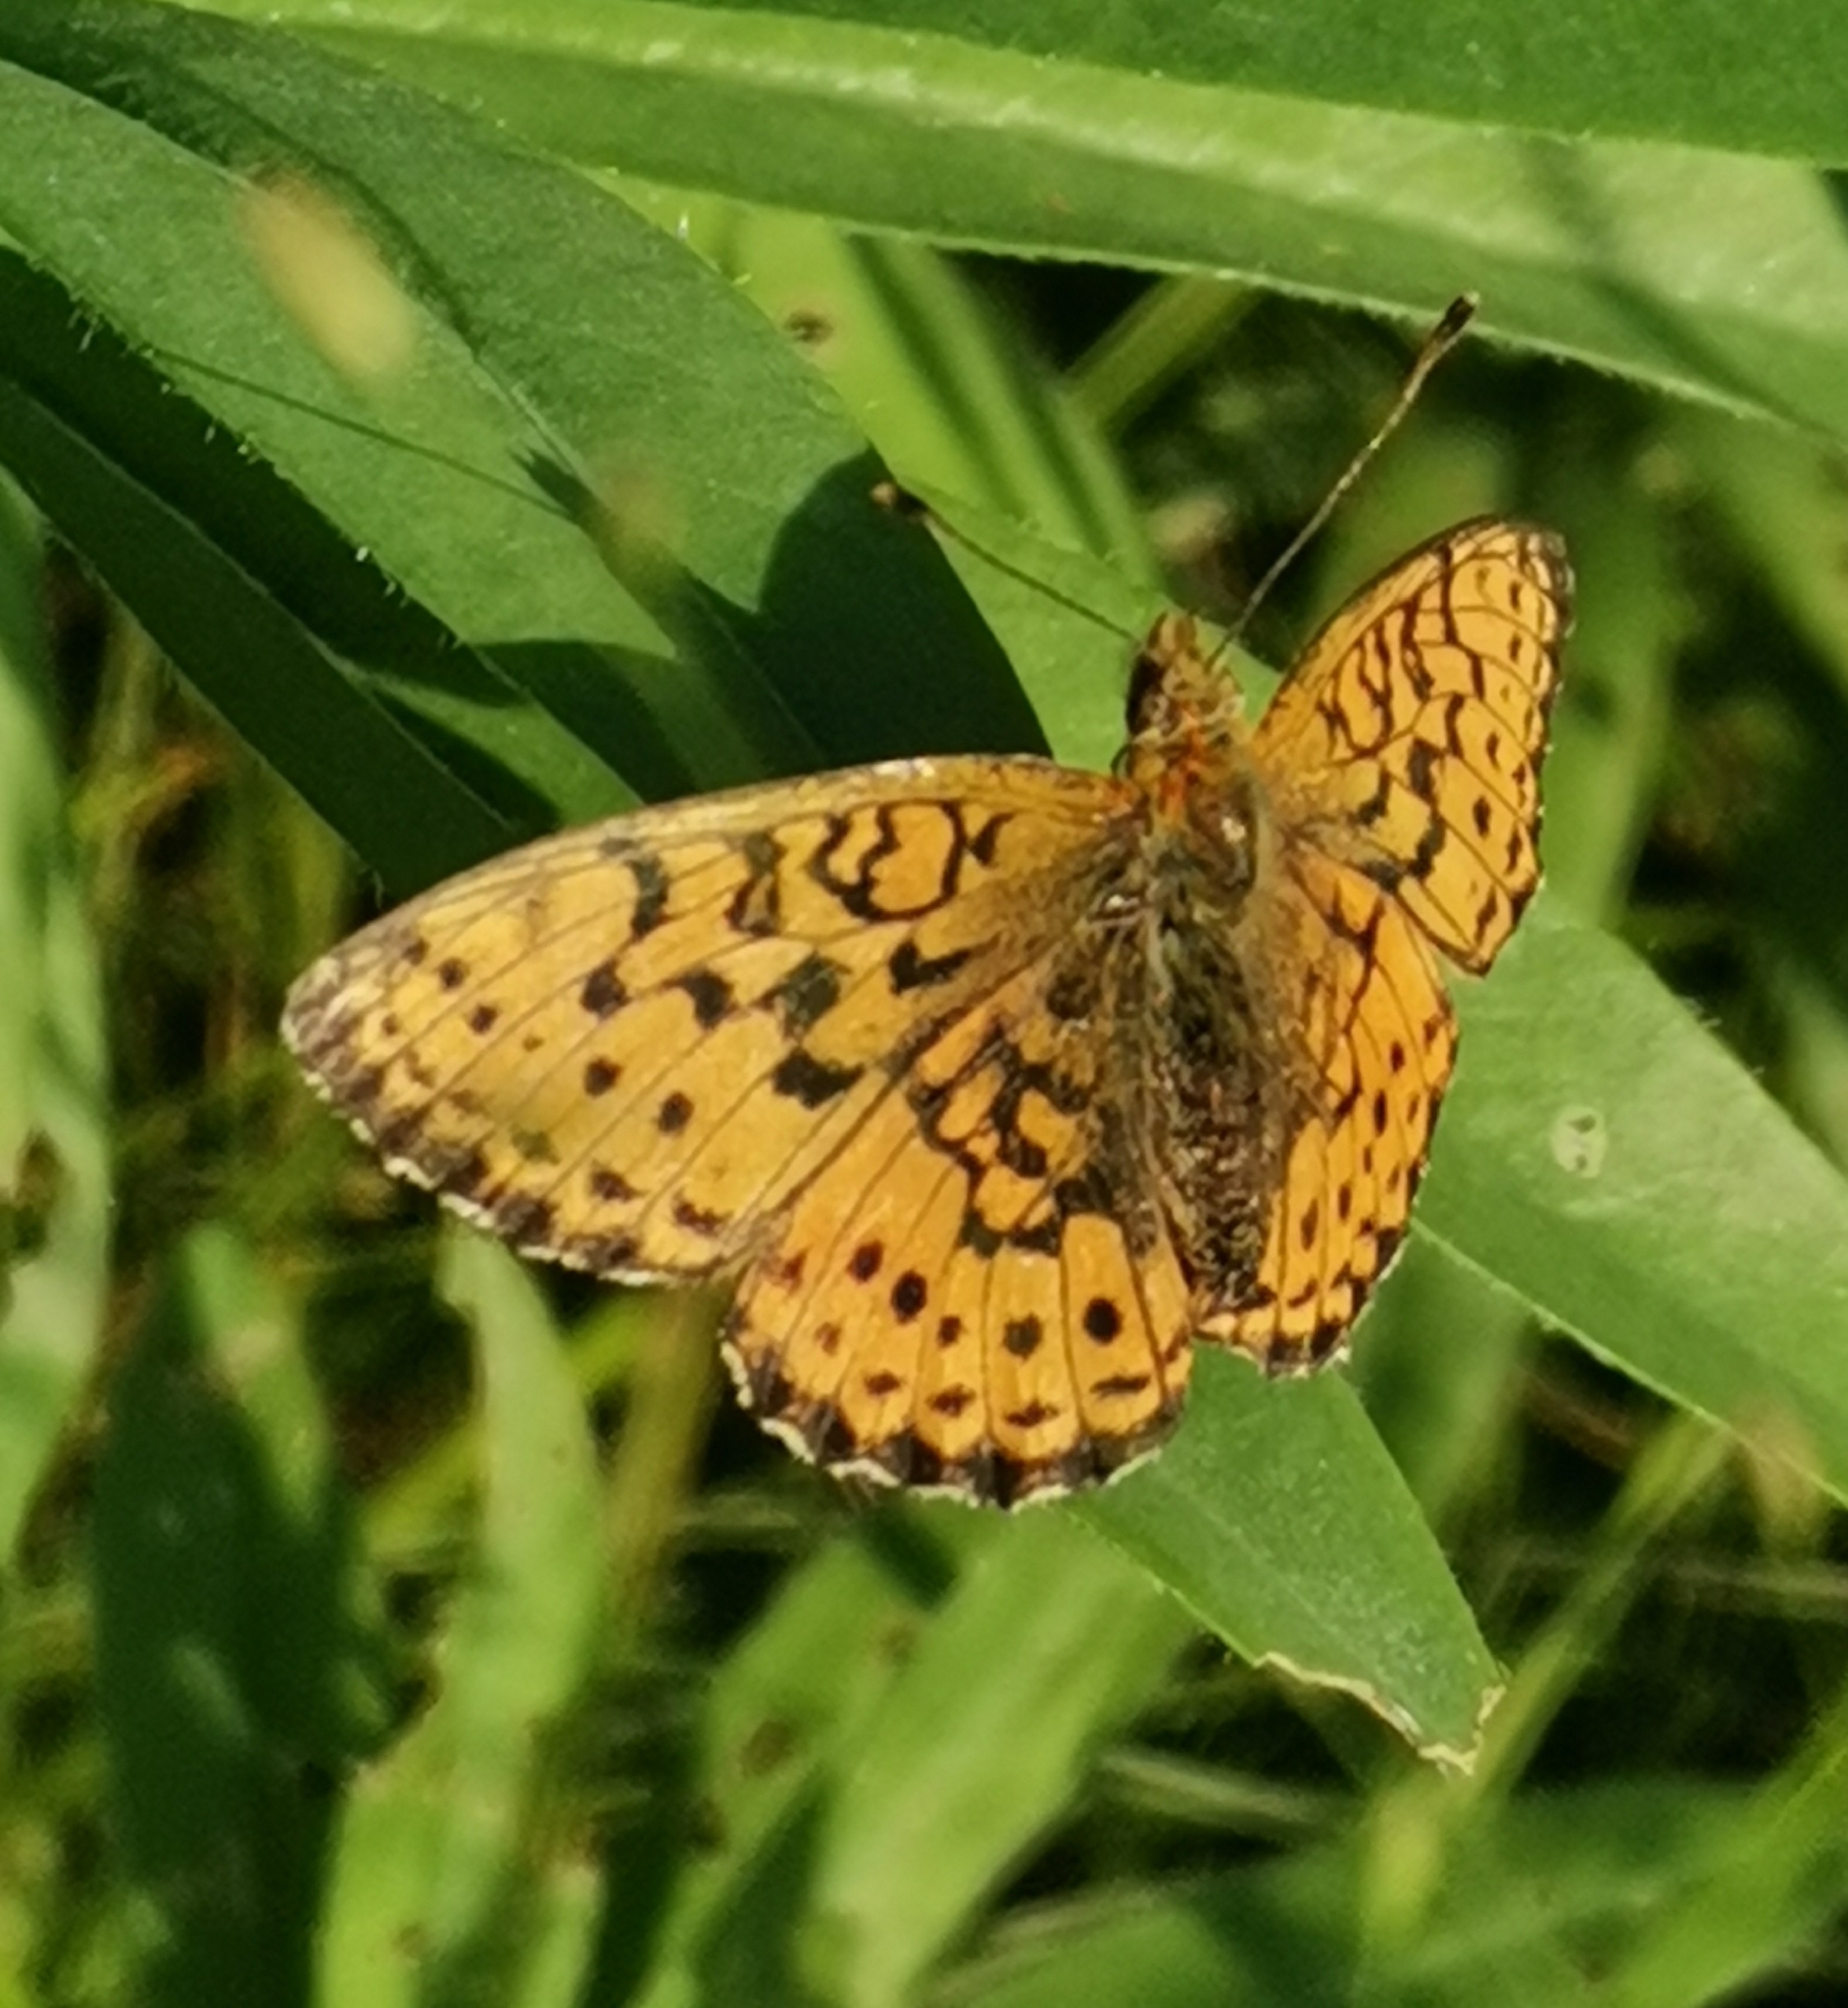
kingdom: Animalia
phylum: Arthropoda
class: Insecta
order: Lepidoptera
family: Nymphalidae
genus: Brenthis
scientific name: Brenthis ino
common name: Lesser marbled fritillary
